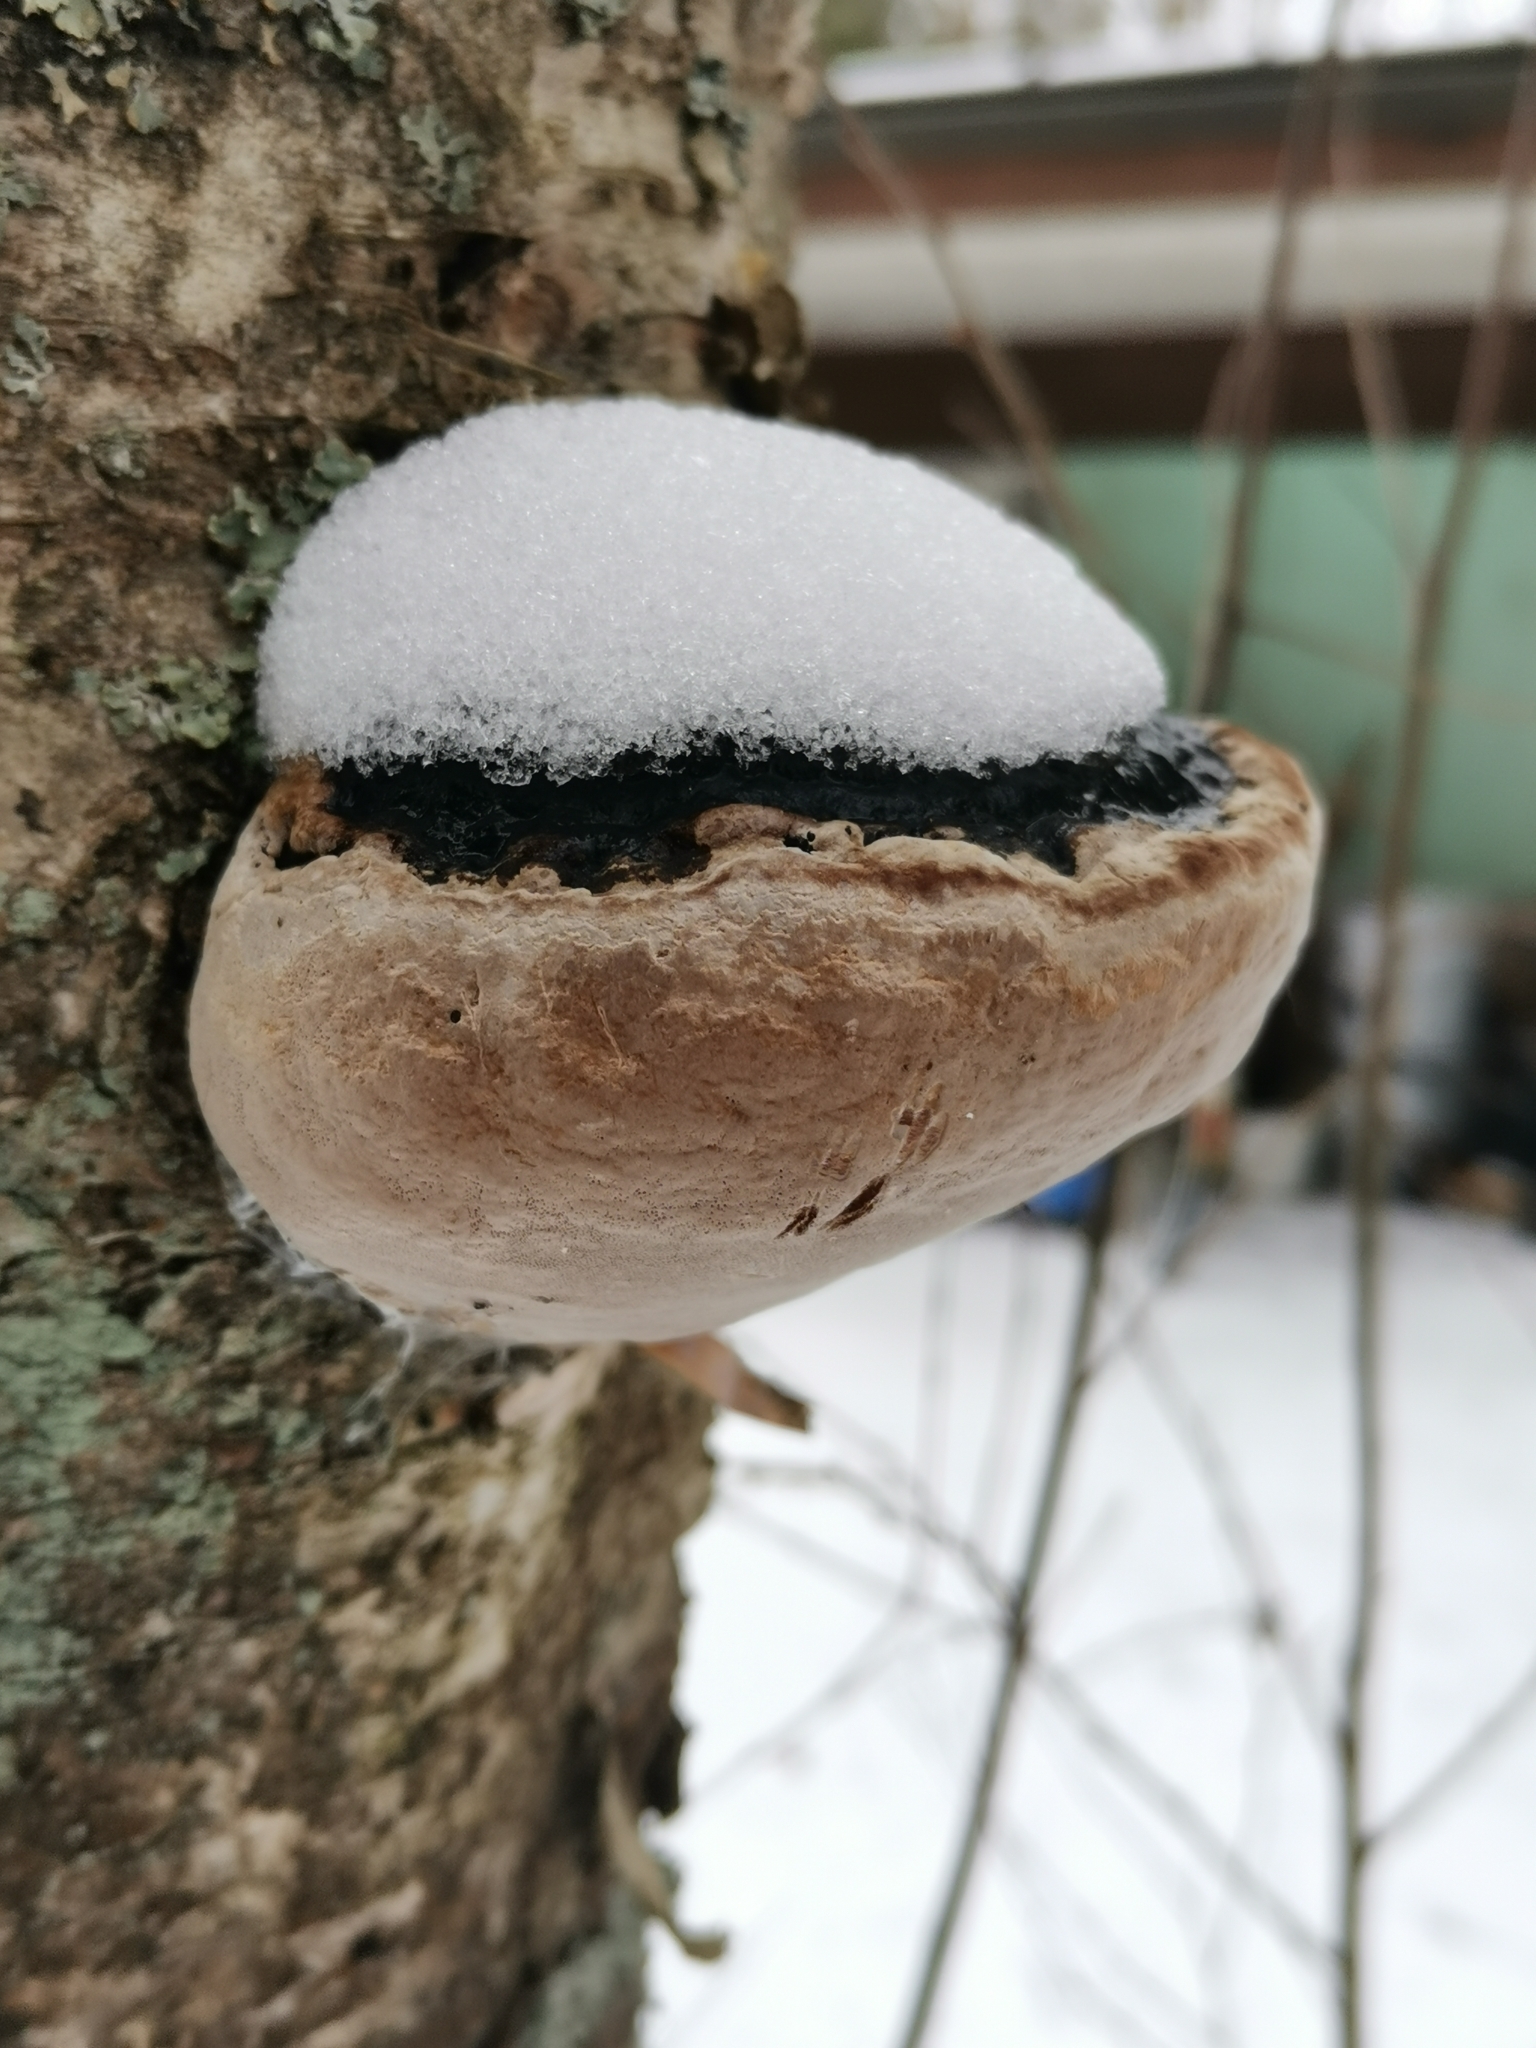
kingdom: Fungi
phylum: Basidiomycota
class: Agaricomycetes
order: Hymenochaetales
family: Hymenochaetaceae
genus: Phellinus
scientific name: Phellinus igniarius
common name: Willow bracket
